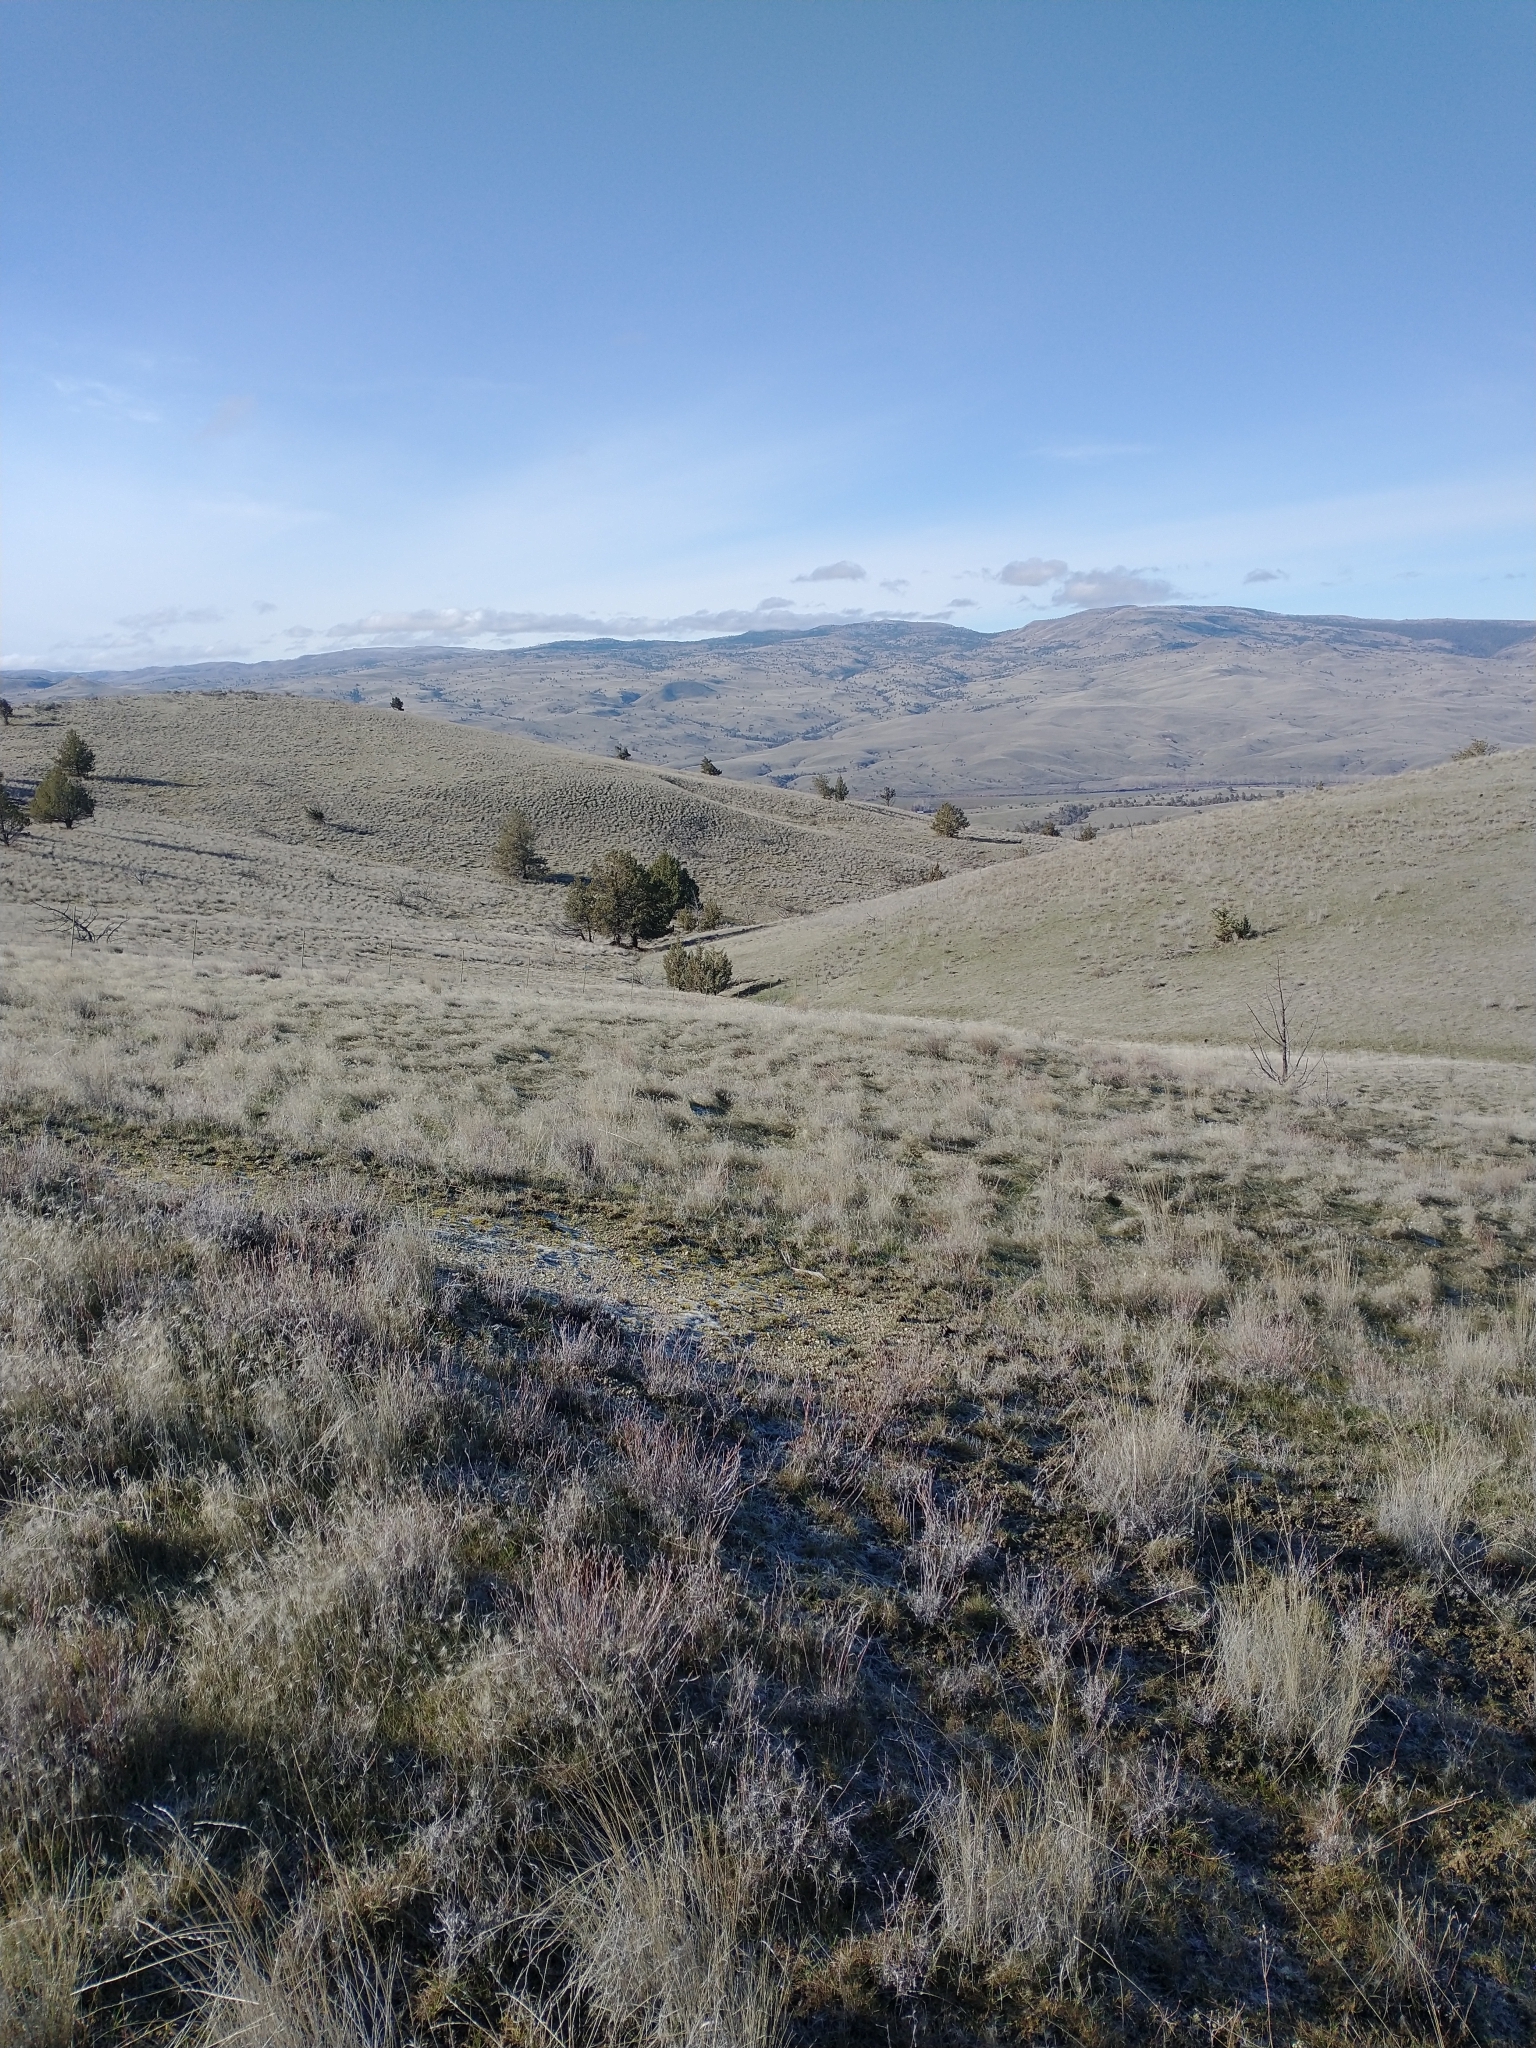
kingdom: Plantae
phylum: Tracheophyta
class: Pinopsida
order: Pinales
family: Cupressaceae
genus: Juniperus
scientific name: Juniperus occidentalis
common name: Western juniper
